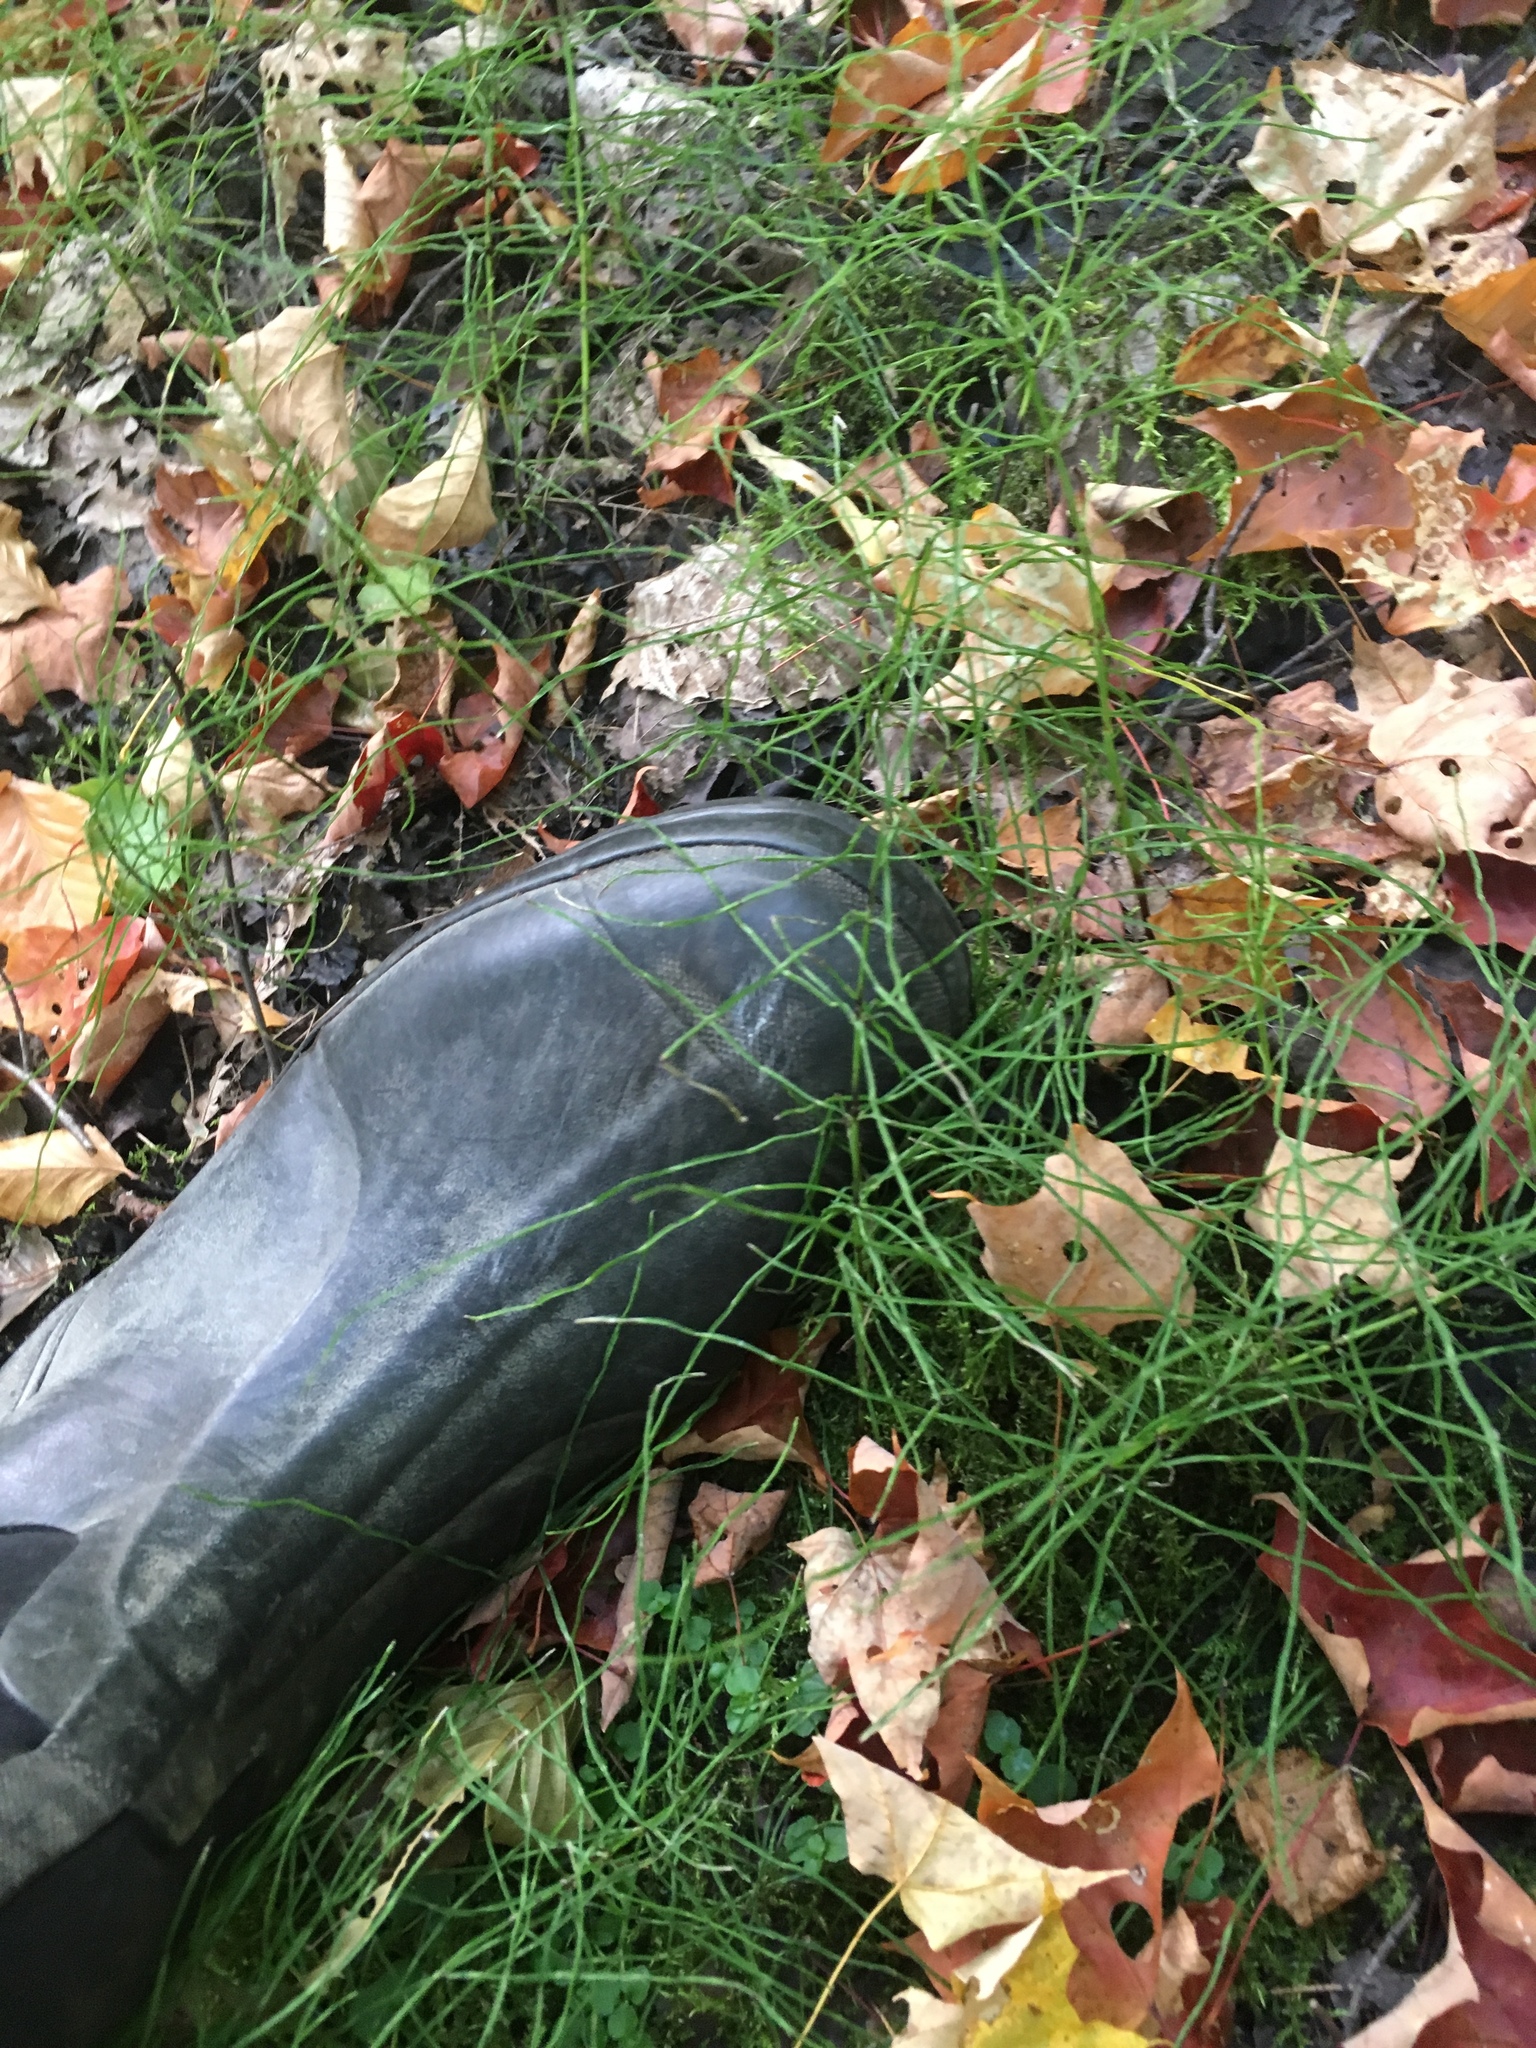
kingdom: Plantae
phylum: Tracheophyta
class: Polypodiopsida
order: Equisetales
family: Equisetaceae
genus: Equisetum
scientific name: Equisetum arvense
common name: Field horsetail
